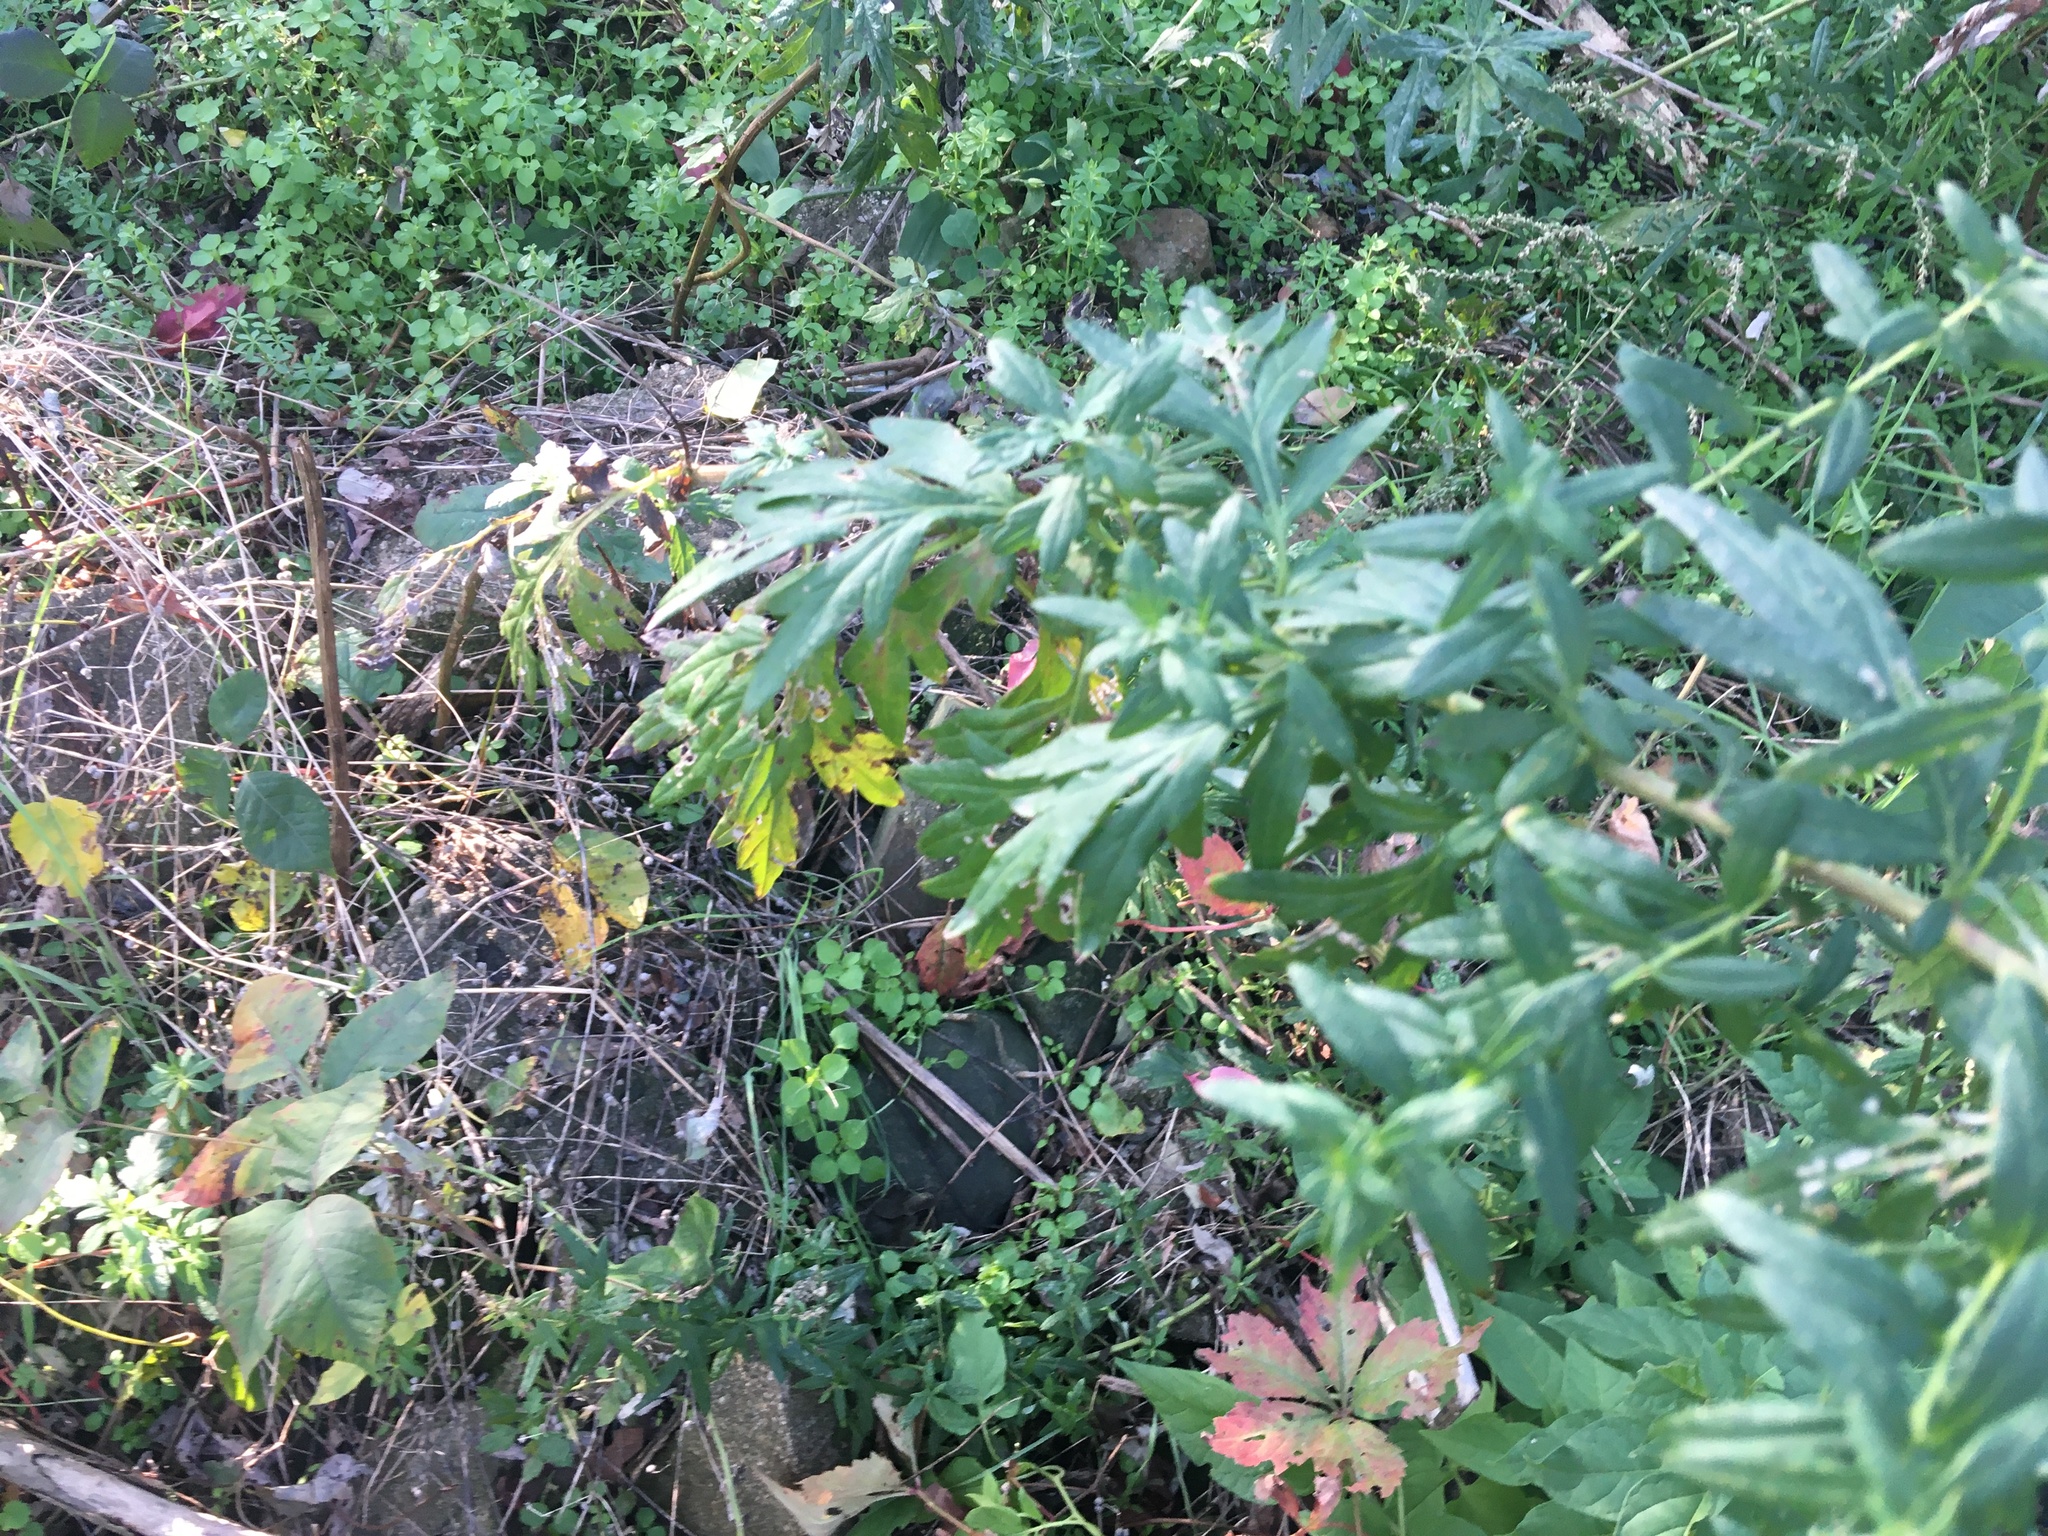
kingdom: Plantae
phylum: Tracheophyta
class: Magnoliopsida
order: Asterales
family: Asteraceae
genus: Artemisia
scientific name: Artemisia vulgaris
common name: Mugwort
